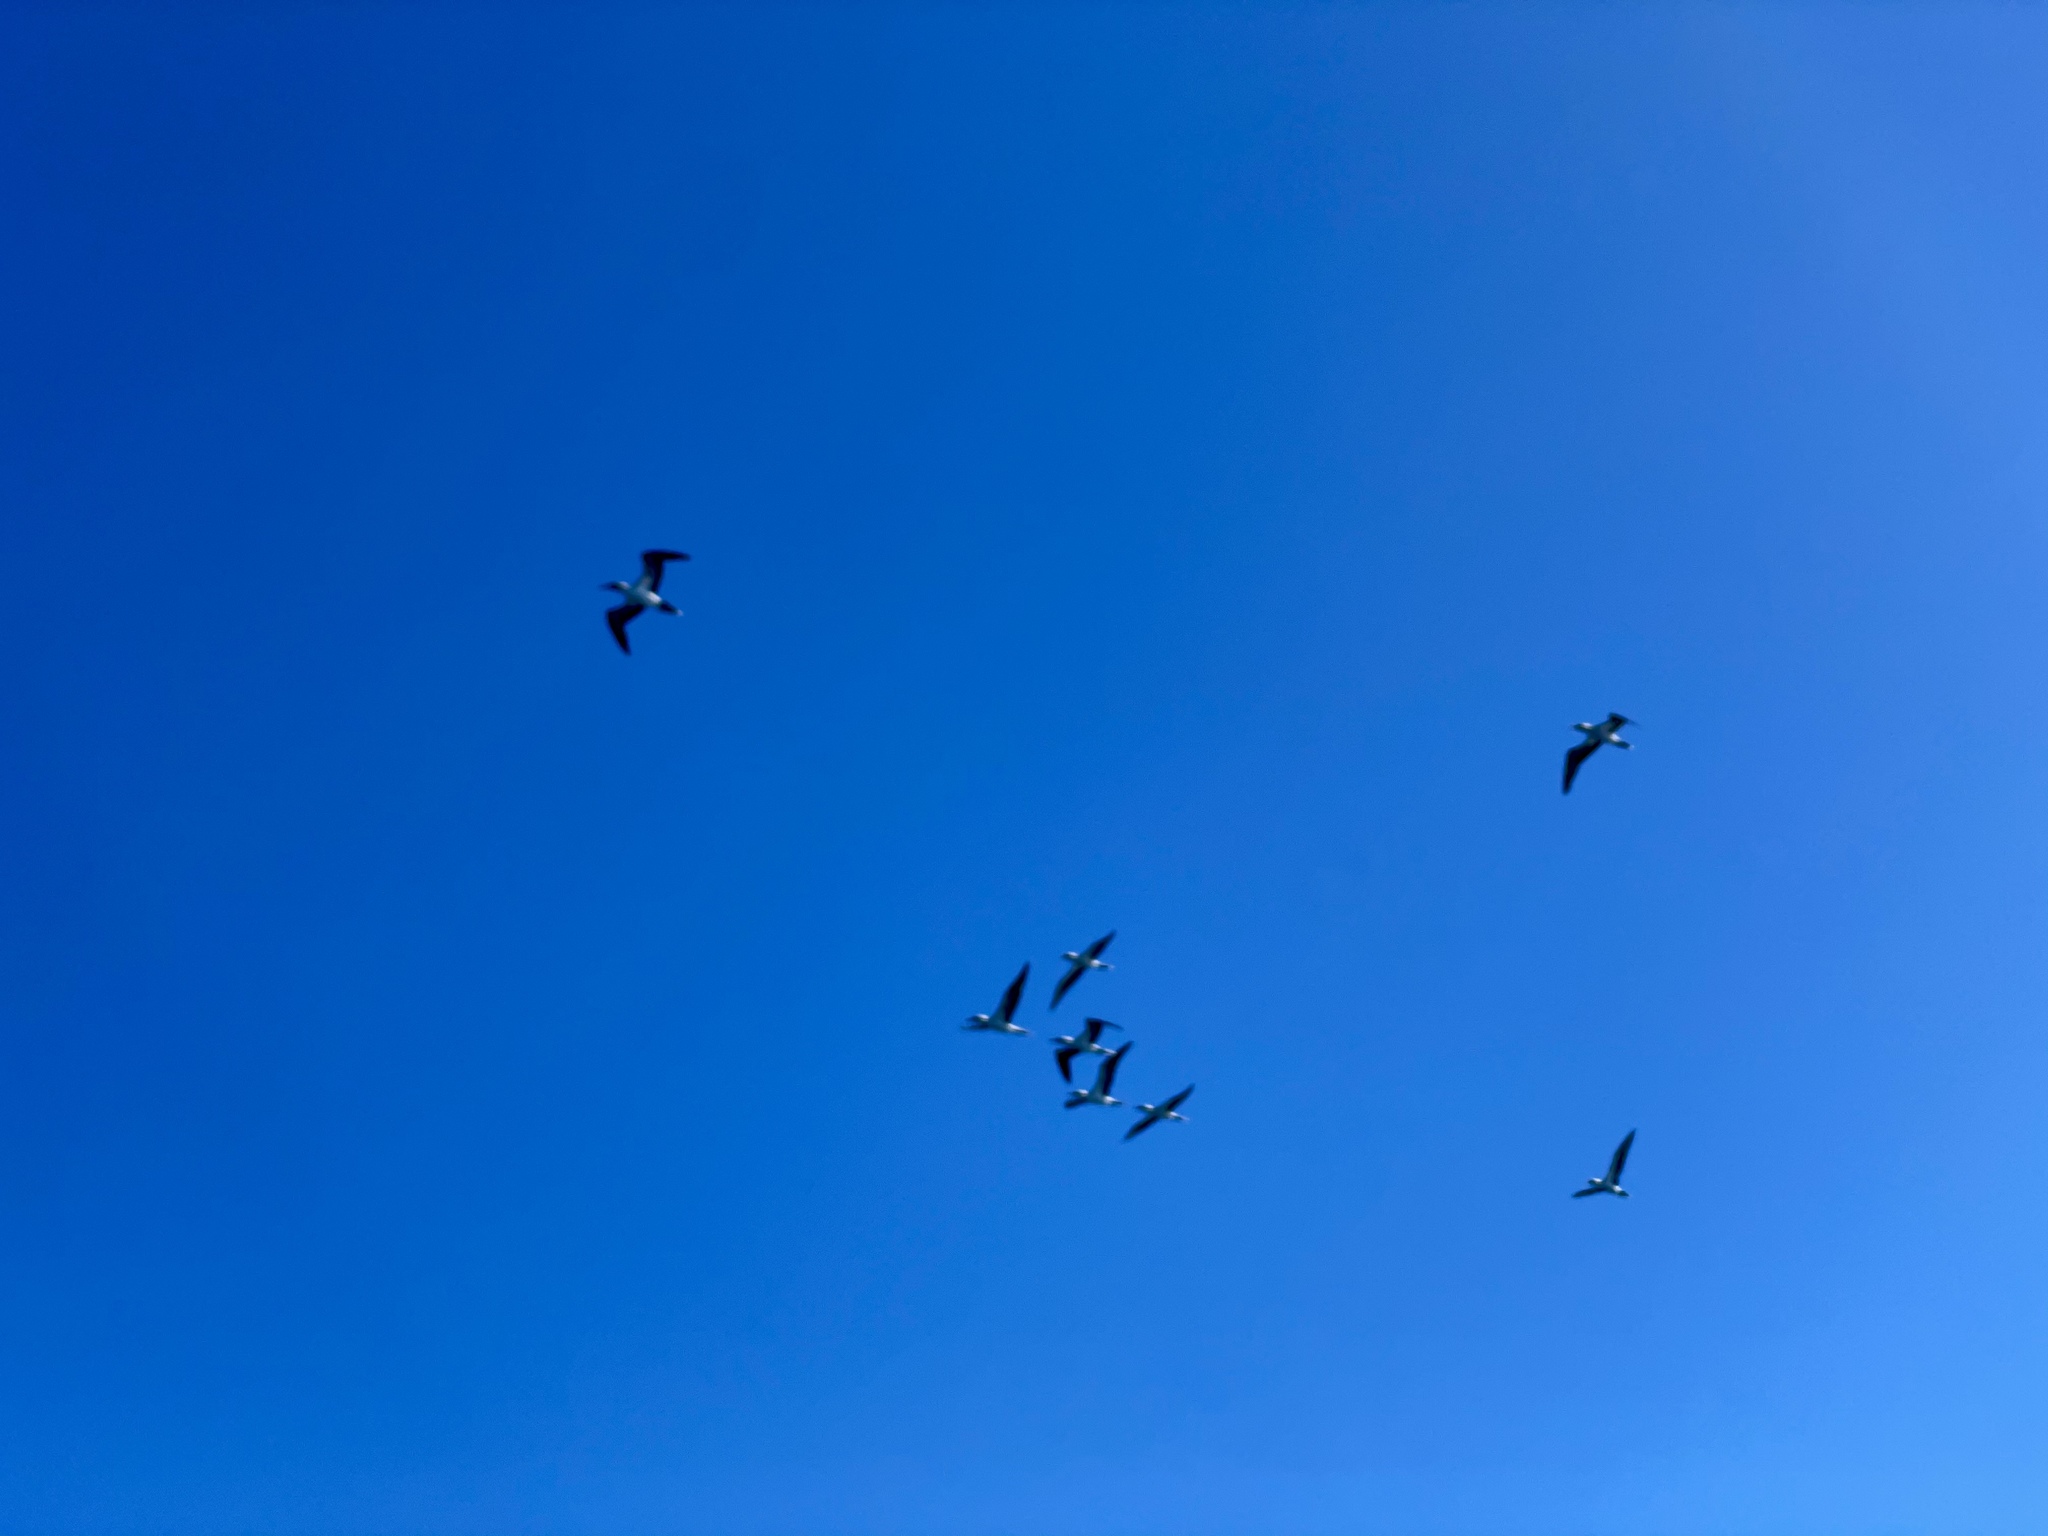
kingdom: Animalia
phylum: Chordata
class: Aves
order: Suliformes
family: Sulidae
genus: Sula
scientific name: Sula nebouxii
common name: Blue-footed booby
